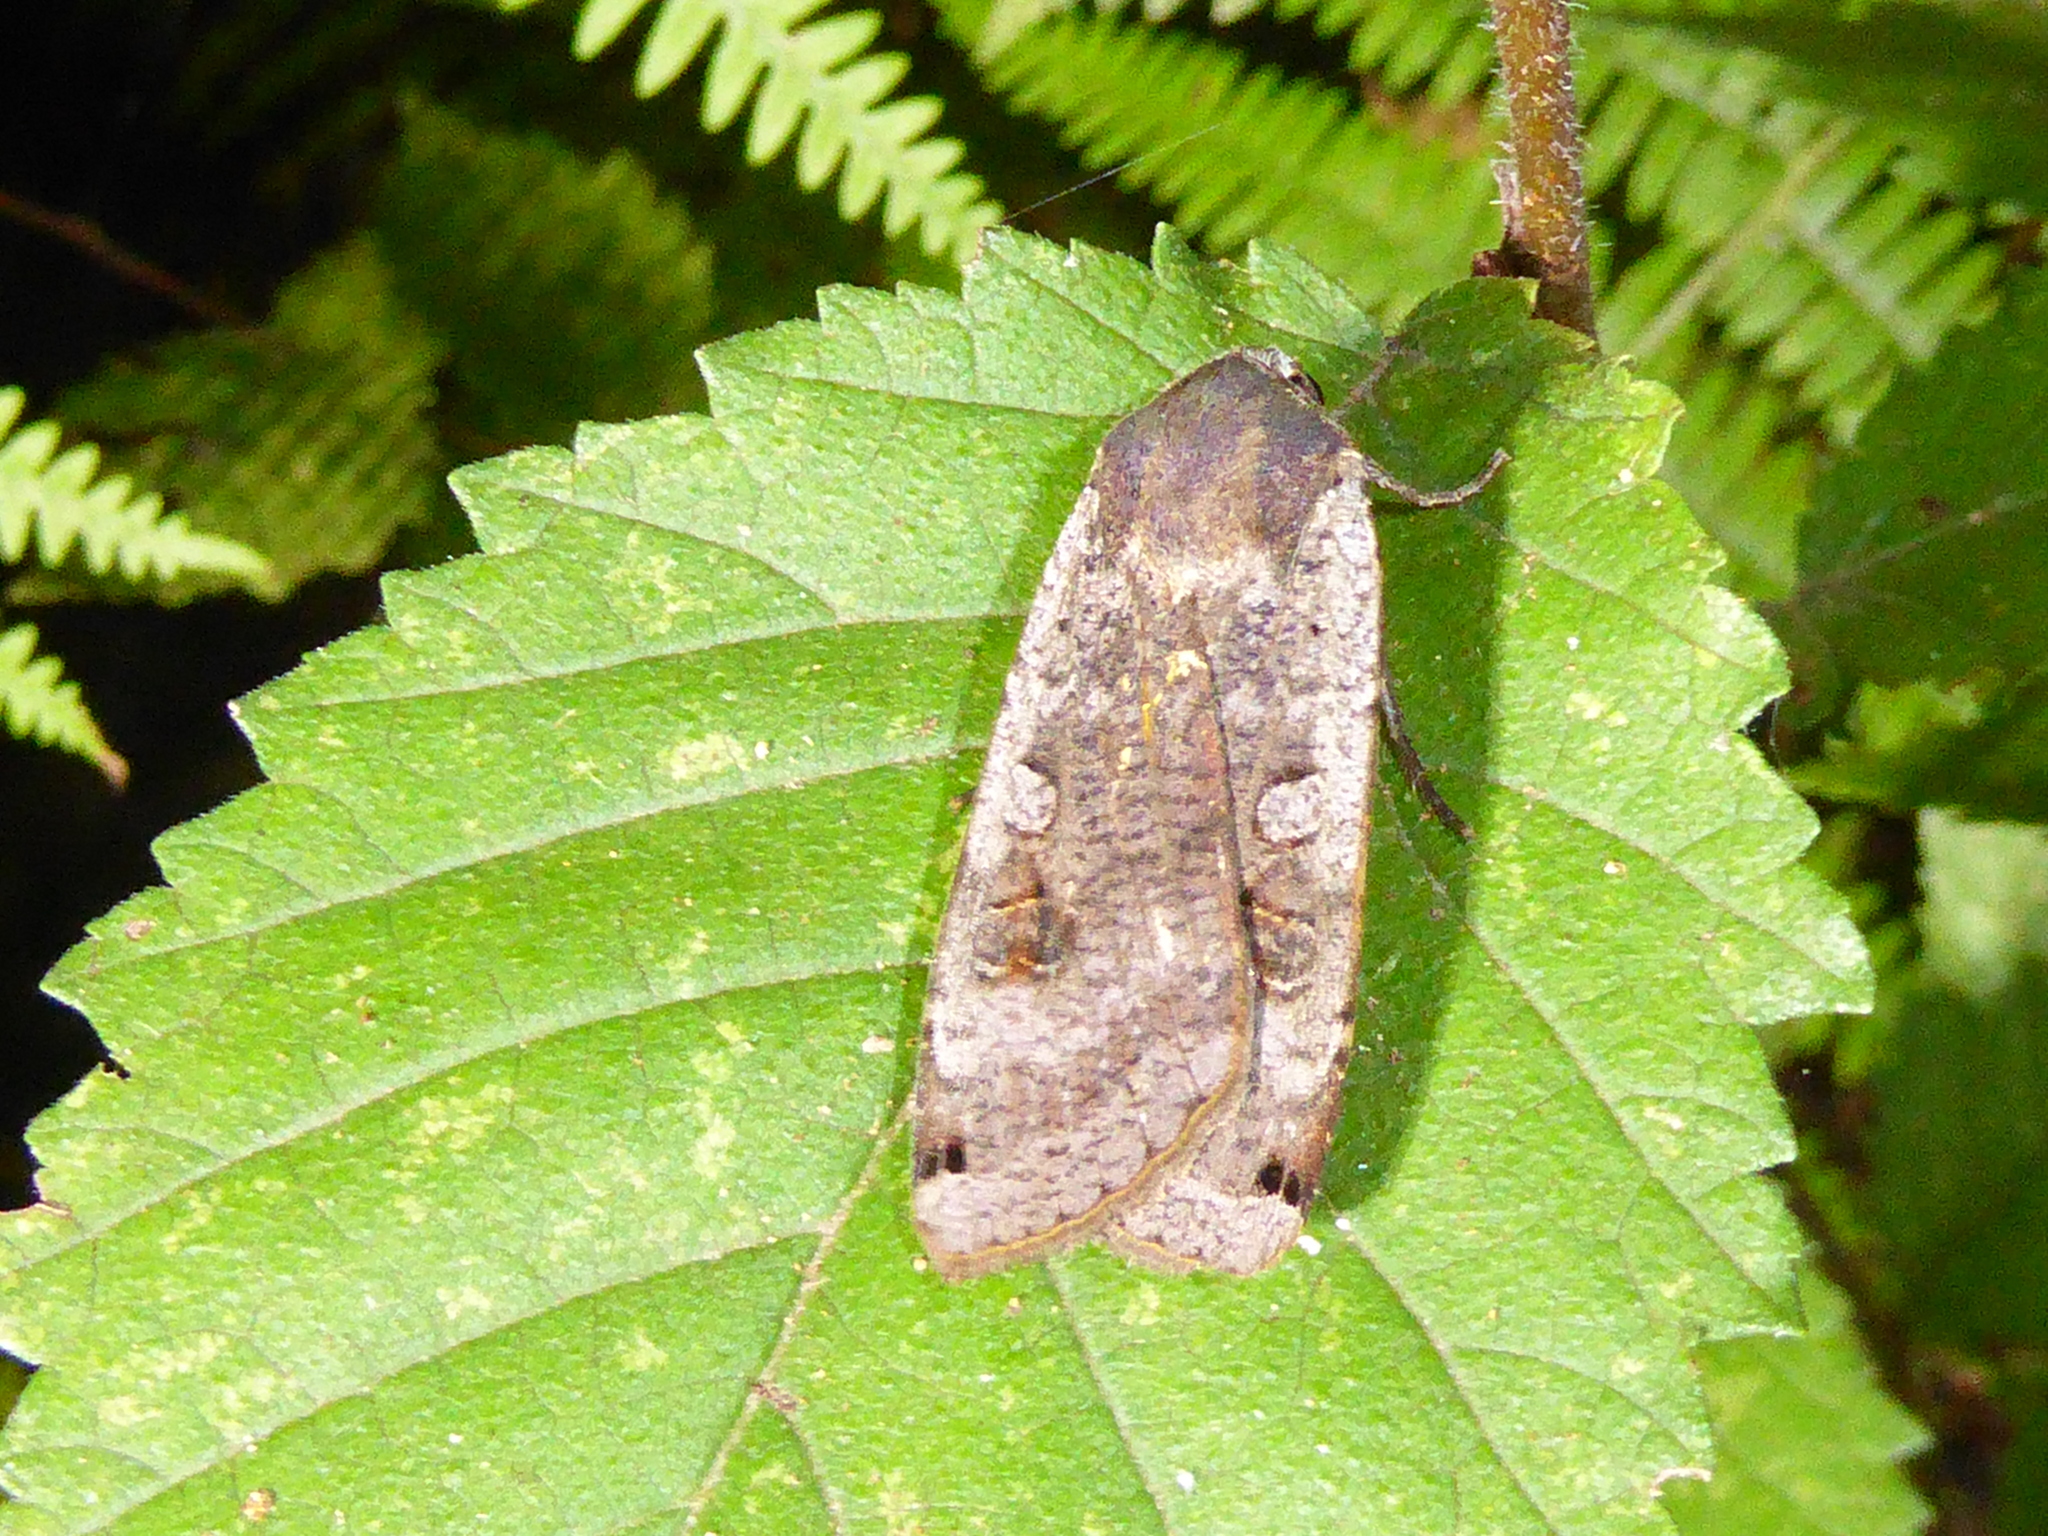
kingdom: Animalia
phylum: Arthropoda
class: Insecta
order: Lepidoptera
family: Noctuidae
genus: Noctua
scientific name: Noctua pronuba
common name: Large yellow underwing
